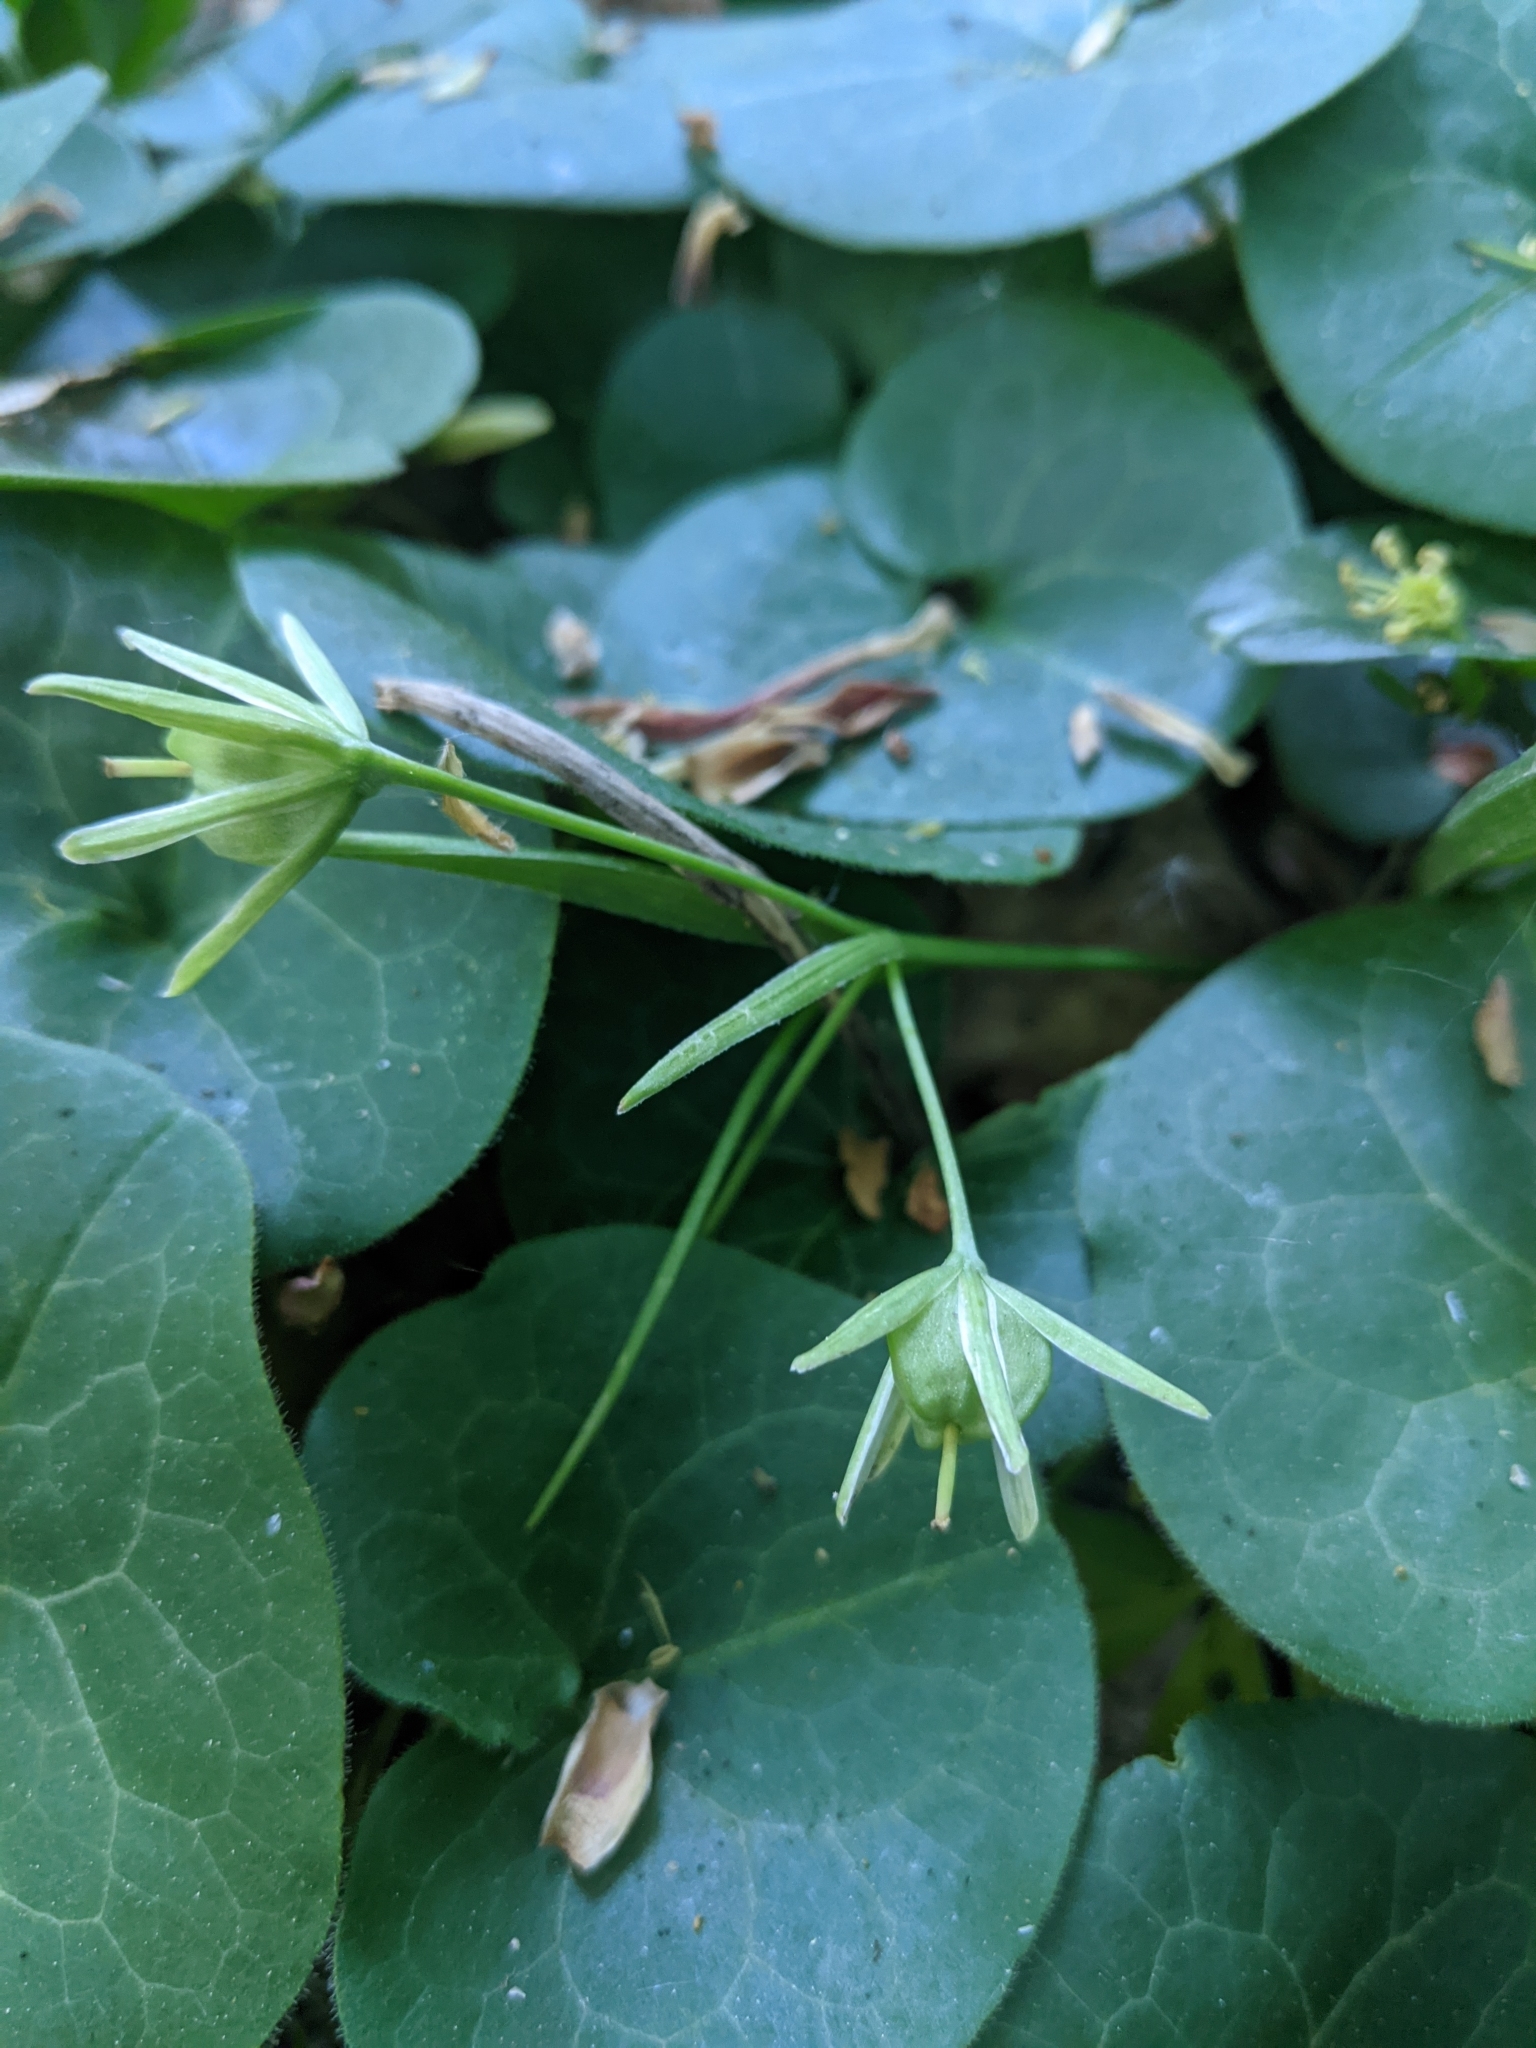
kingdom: Plantae
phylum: Tracheophyta
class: Magnoliopsida
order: Piperales
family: Aristolochiaceae
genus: Asarum
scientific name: Asarum europaeum
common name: Asarabacca
